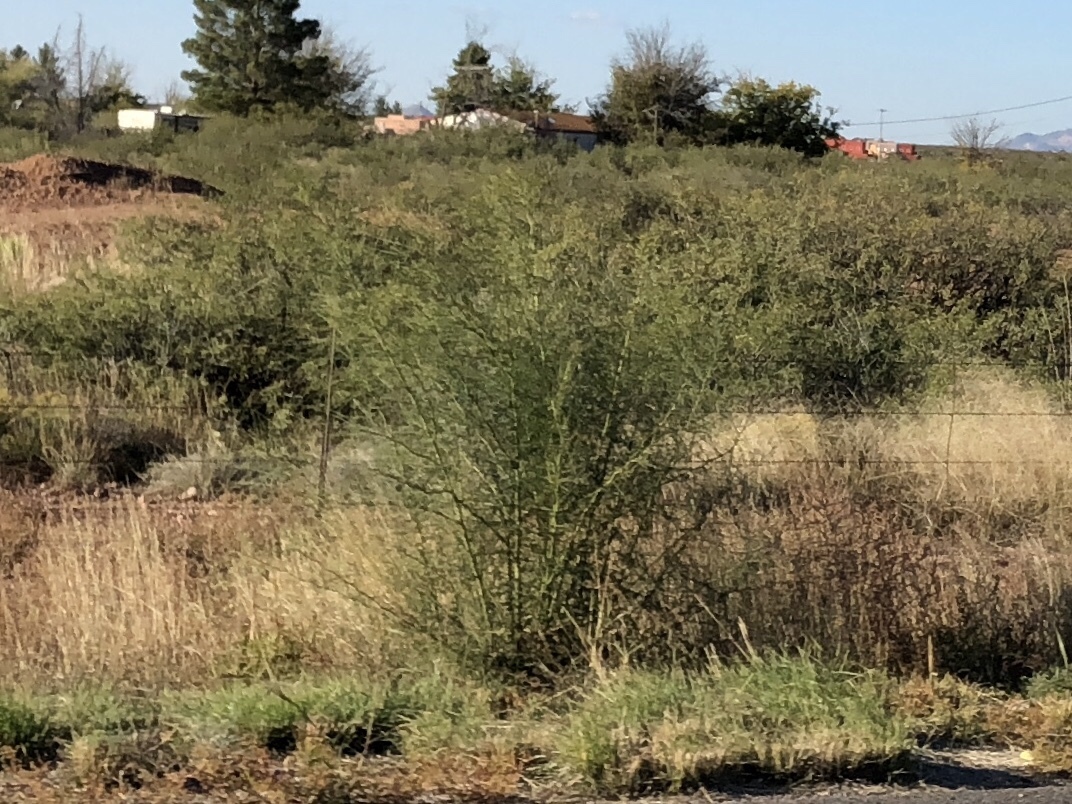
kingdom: Plantae
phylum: Tracheophyta
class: Magnoliopsida
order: Fabales
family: Fabaceae
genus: Parkinsonia
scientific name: Parkinsonia aculeata
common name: Jerusalem thorn
